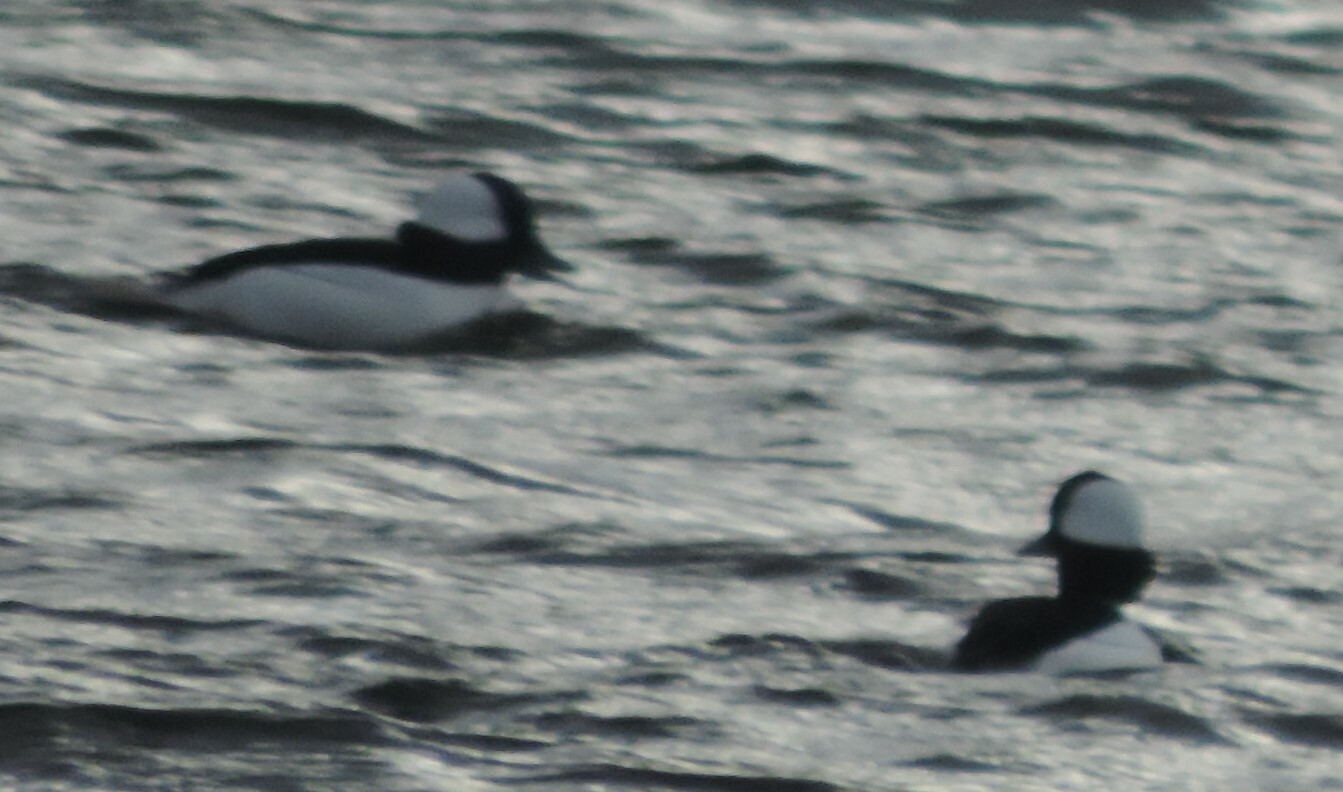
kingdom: Animalia
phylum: Chordata
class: Aves
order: Anseriformes
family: Anatidae
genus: Bucephala
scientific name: Bucephala albeola
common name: Bufflehead
